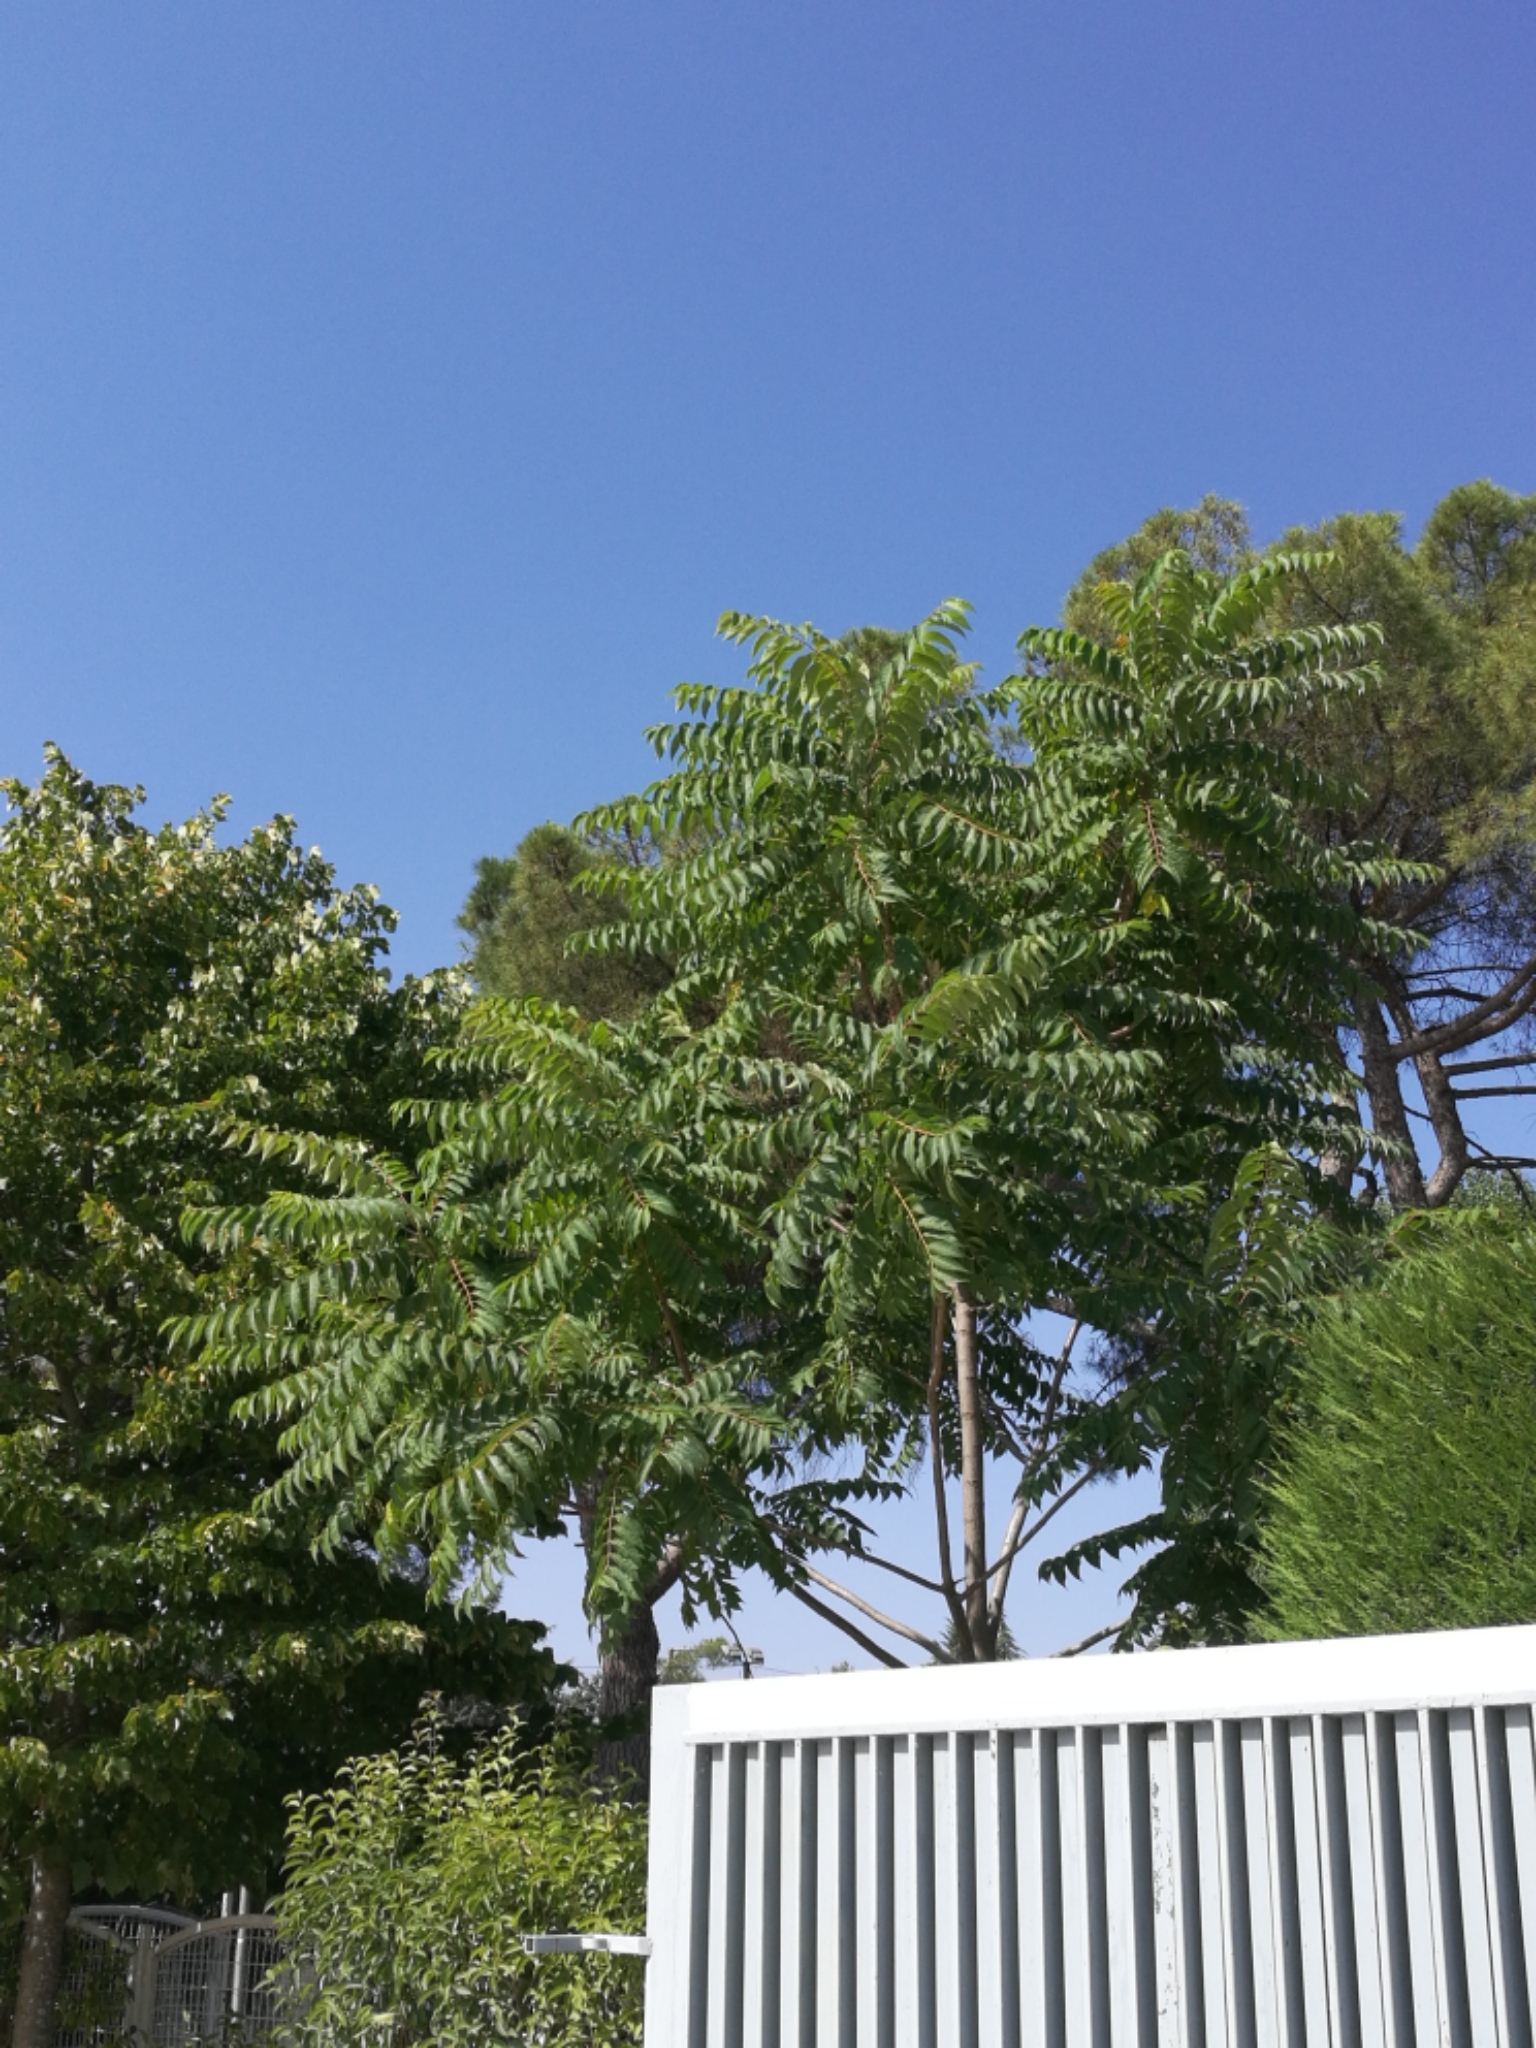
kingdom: Plantae
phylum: Tracheophyta
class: Magnoliopsida
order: Sapindales
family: Simaroubaceae
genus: Ailanthus
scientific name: Ailanthus altissima
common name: Tree-of-heaven
